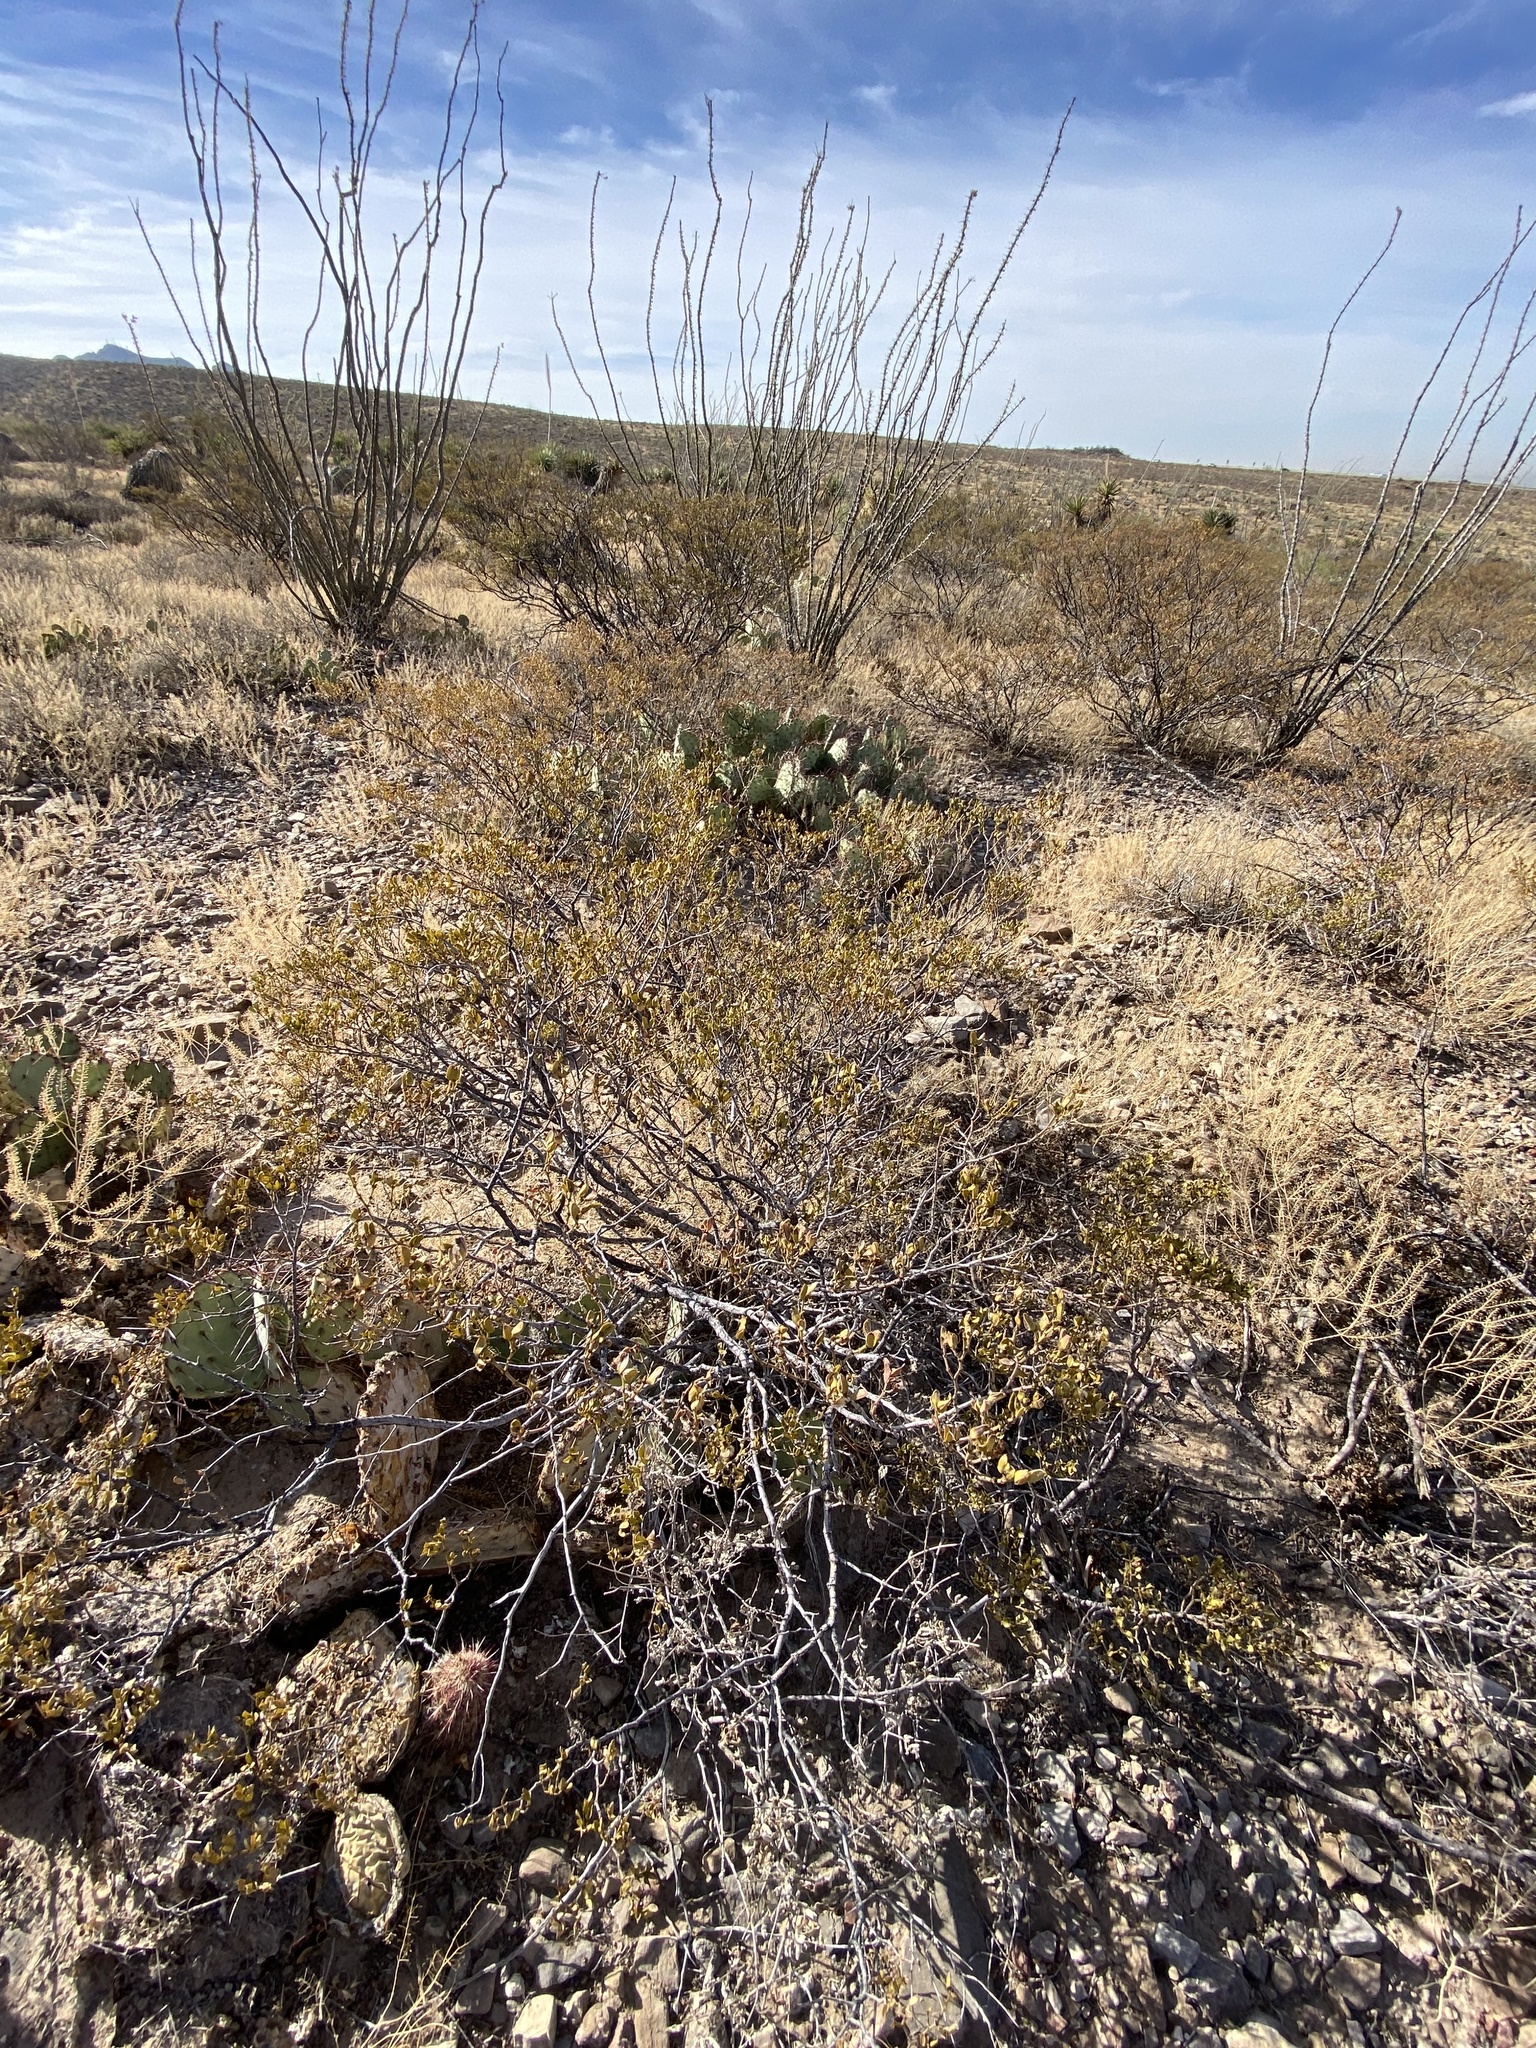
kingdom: Plantae
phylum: Tracheophyta
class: Magnoliopsida
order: Zygophyllales
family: Zygophyllaceae
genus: Larrea
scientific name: Larrea tridentata
